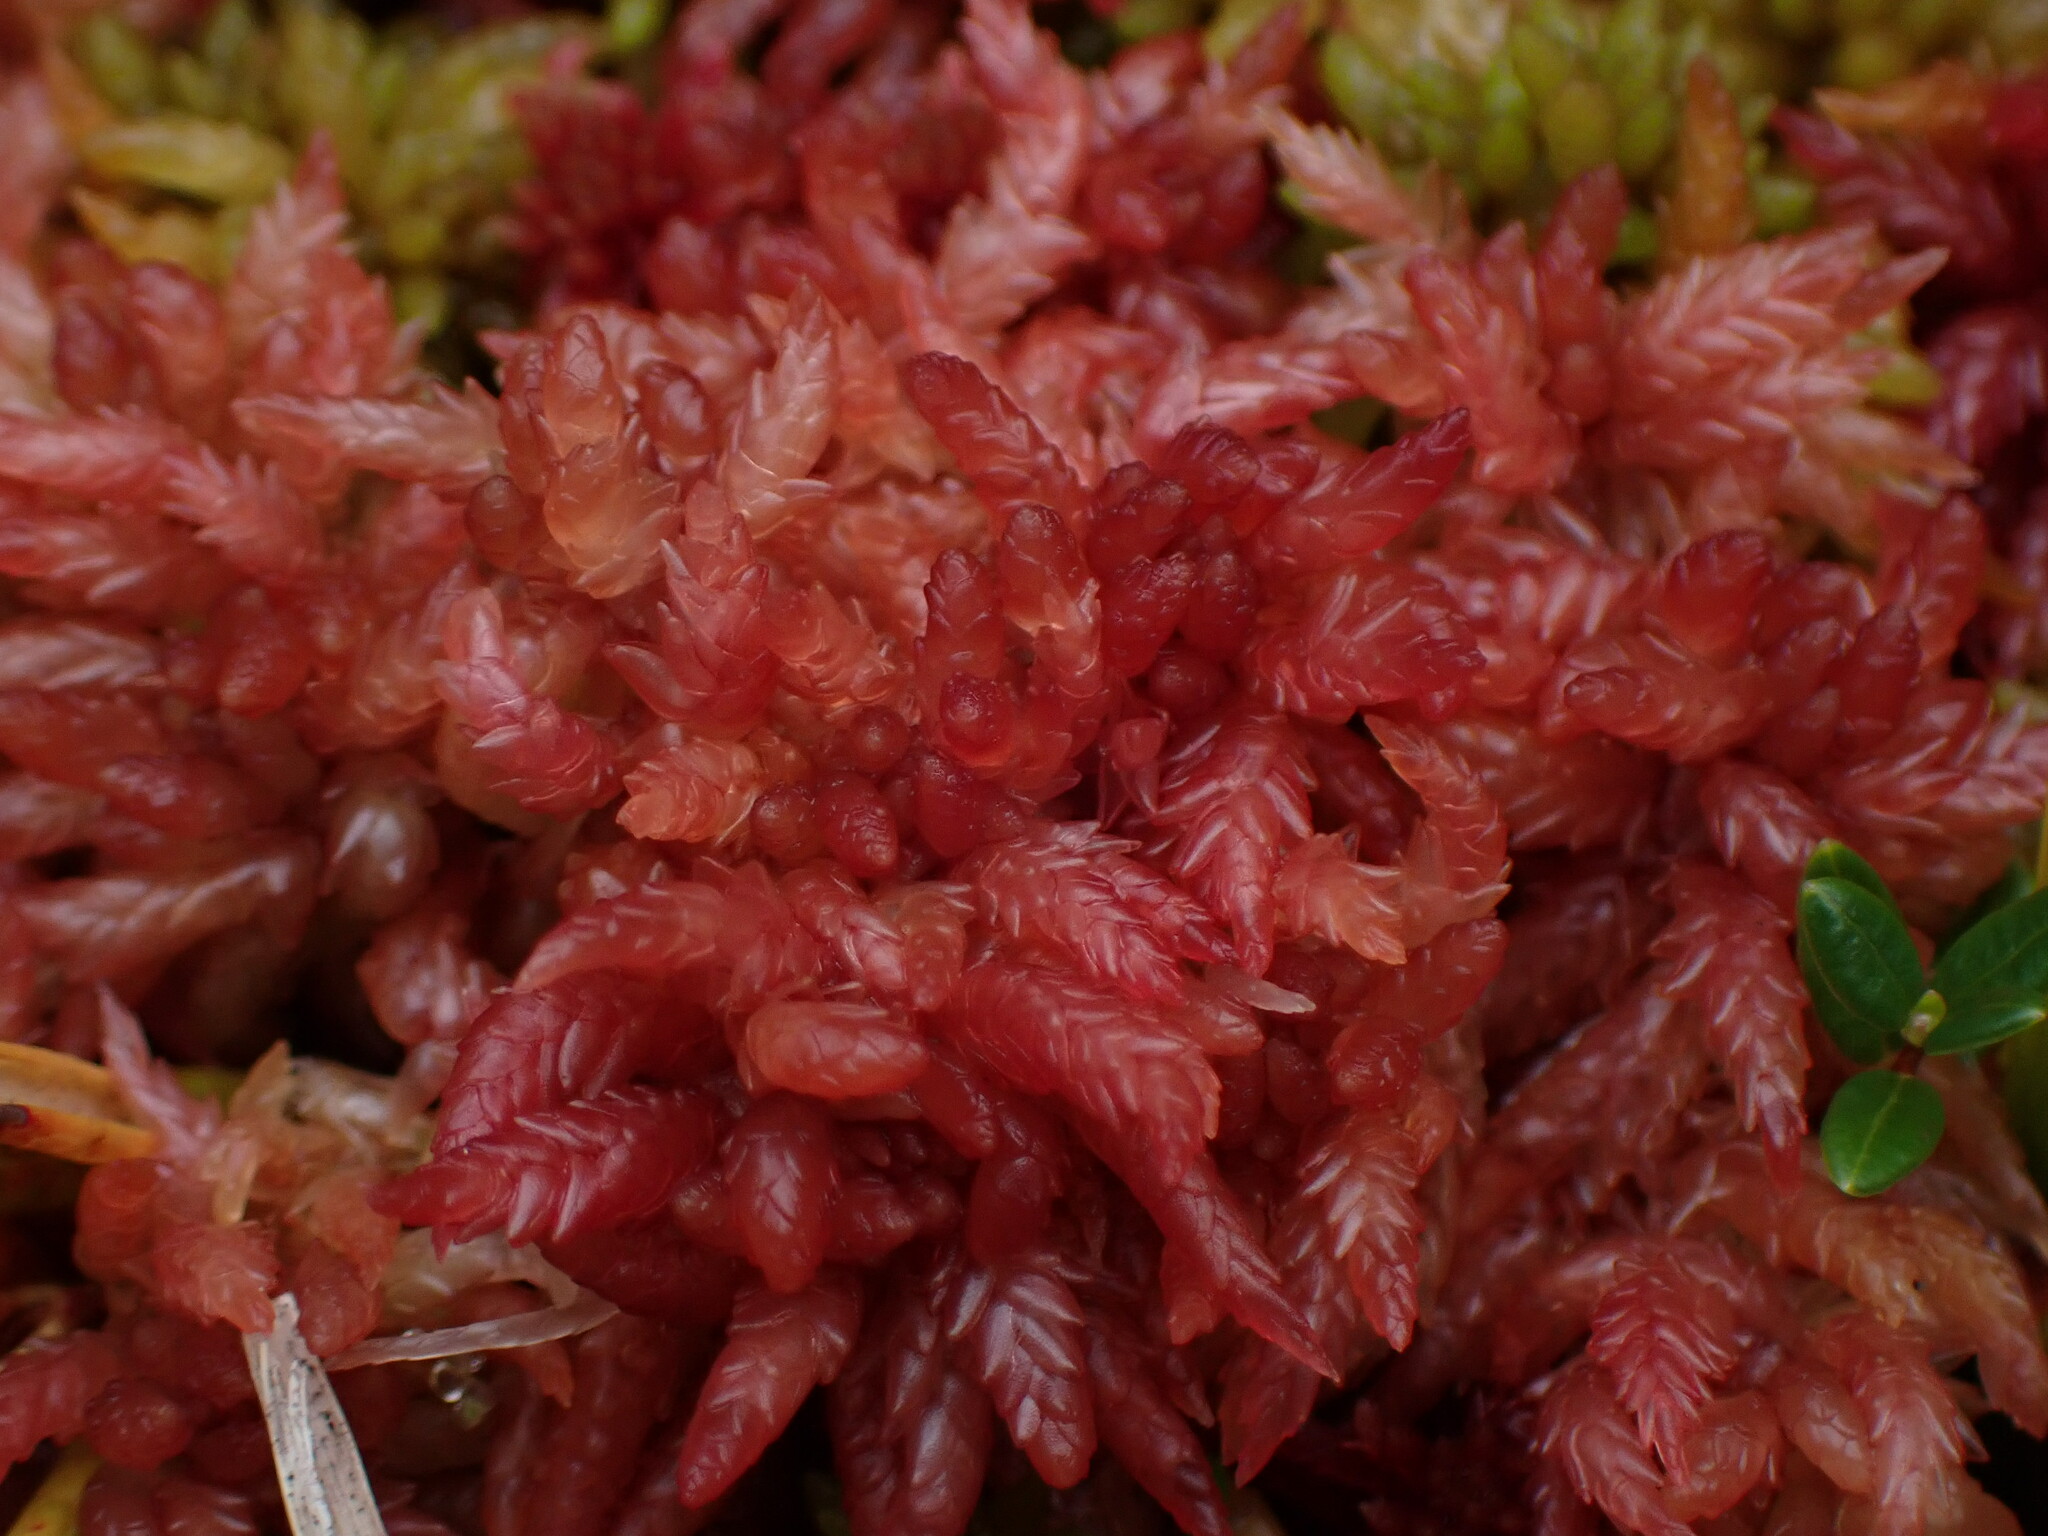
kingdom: Plantae
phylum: Bryophyta
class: Sphagnopsida
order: Sphagnales
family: Sphagnaceae
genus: Sphagnum
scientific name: Sphagnum divinum
